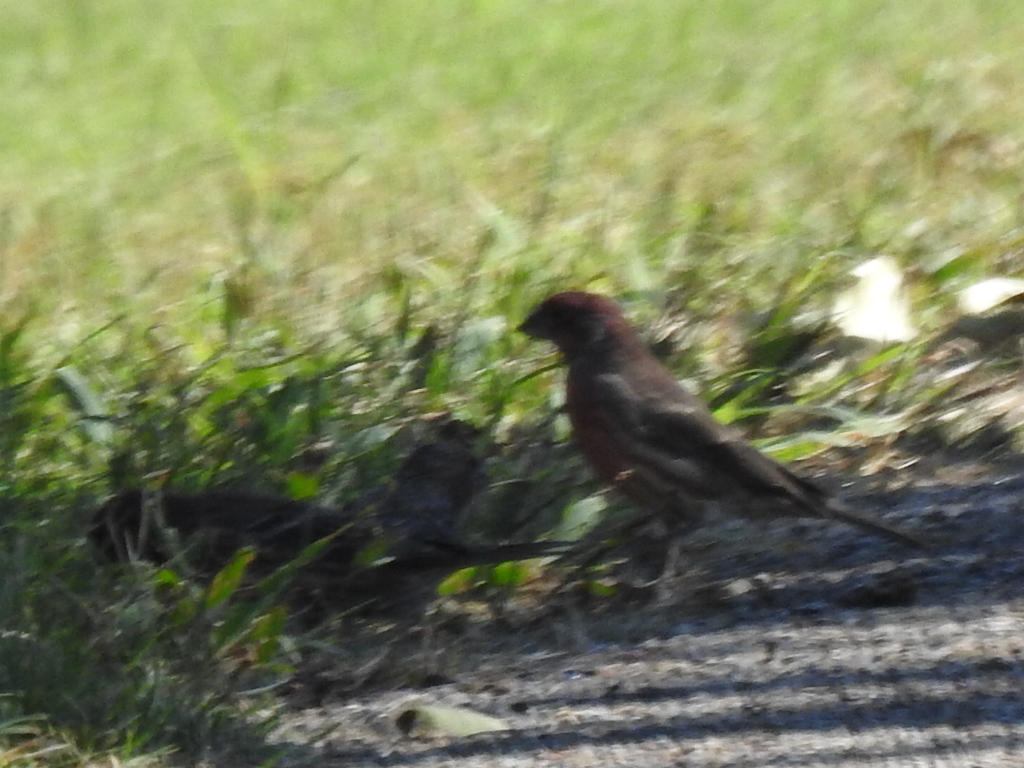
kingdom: Animalia
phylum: Chordata
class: Aves
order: Passeriformes
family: Fringillidae
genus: Haemorhous
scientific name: Haemorhous mexicanus
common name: House finch
